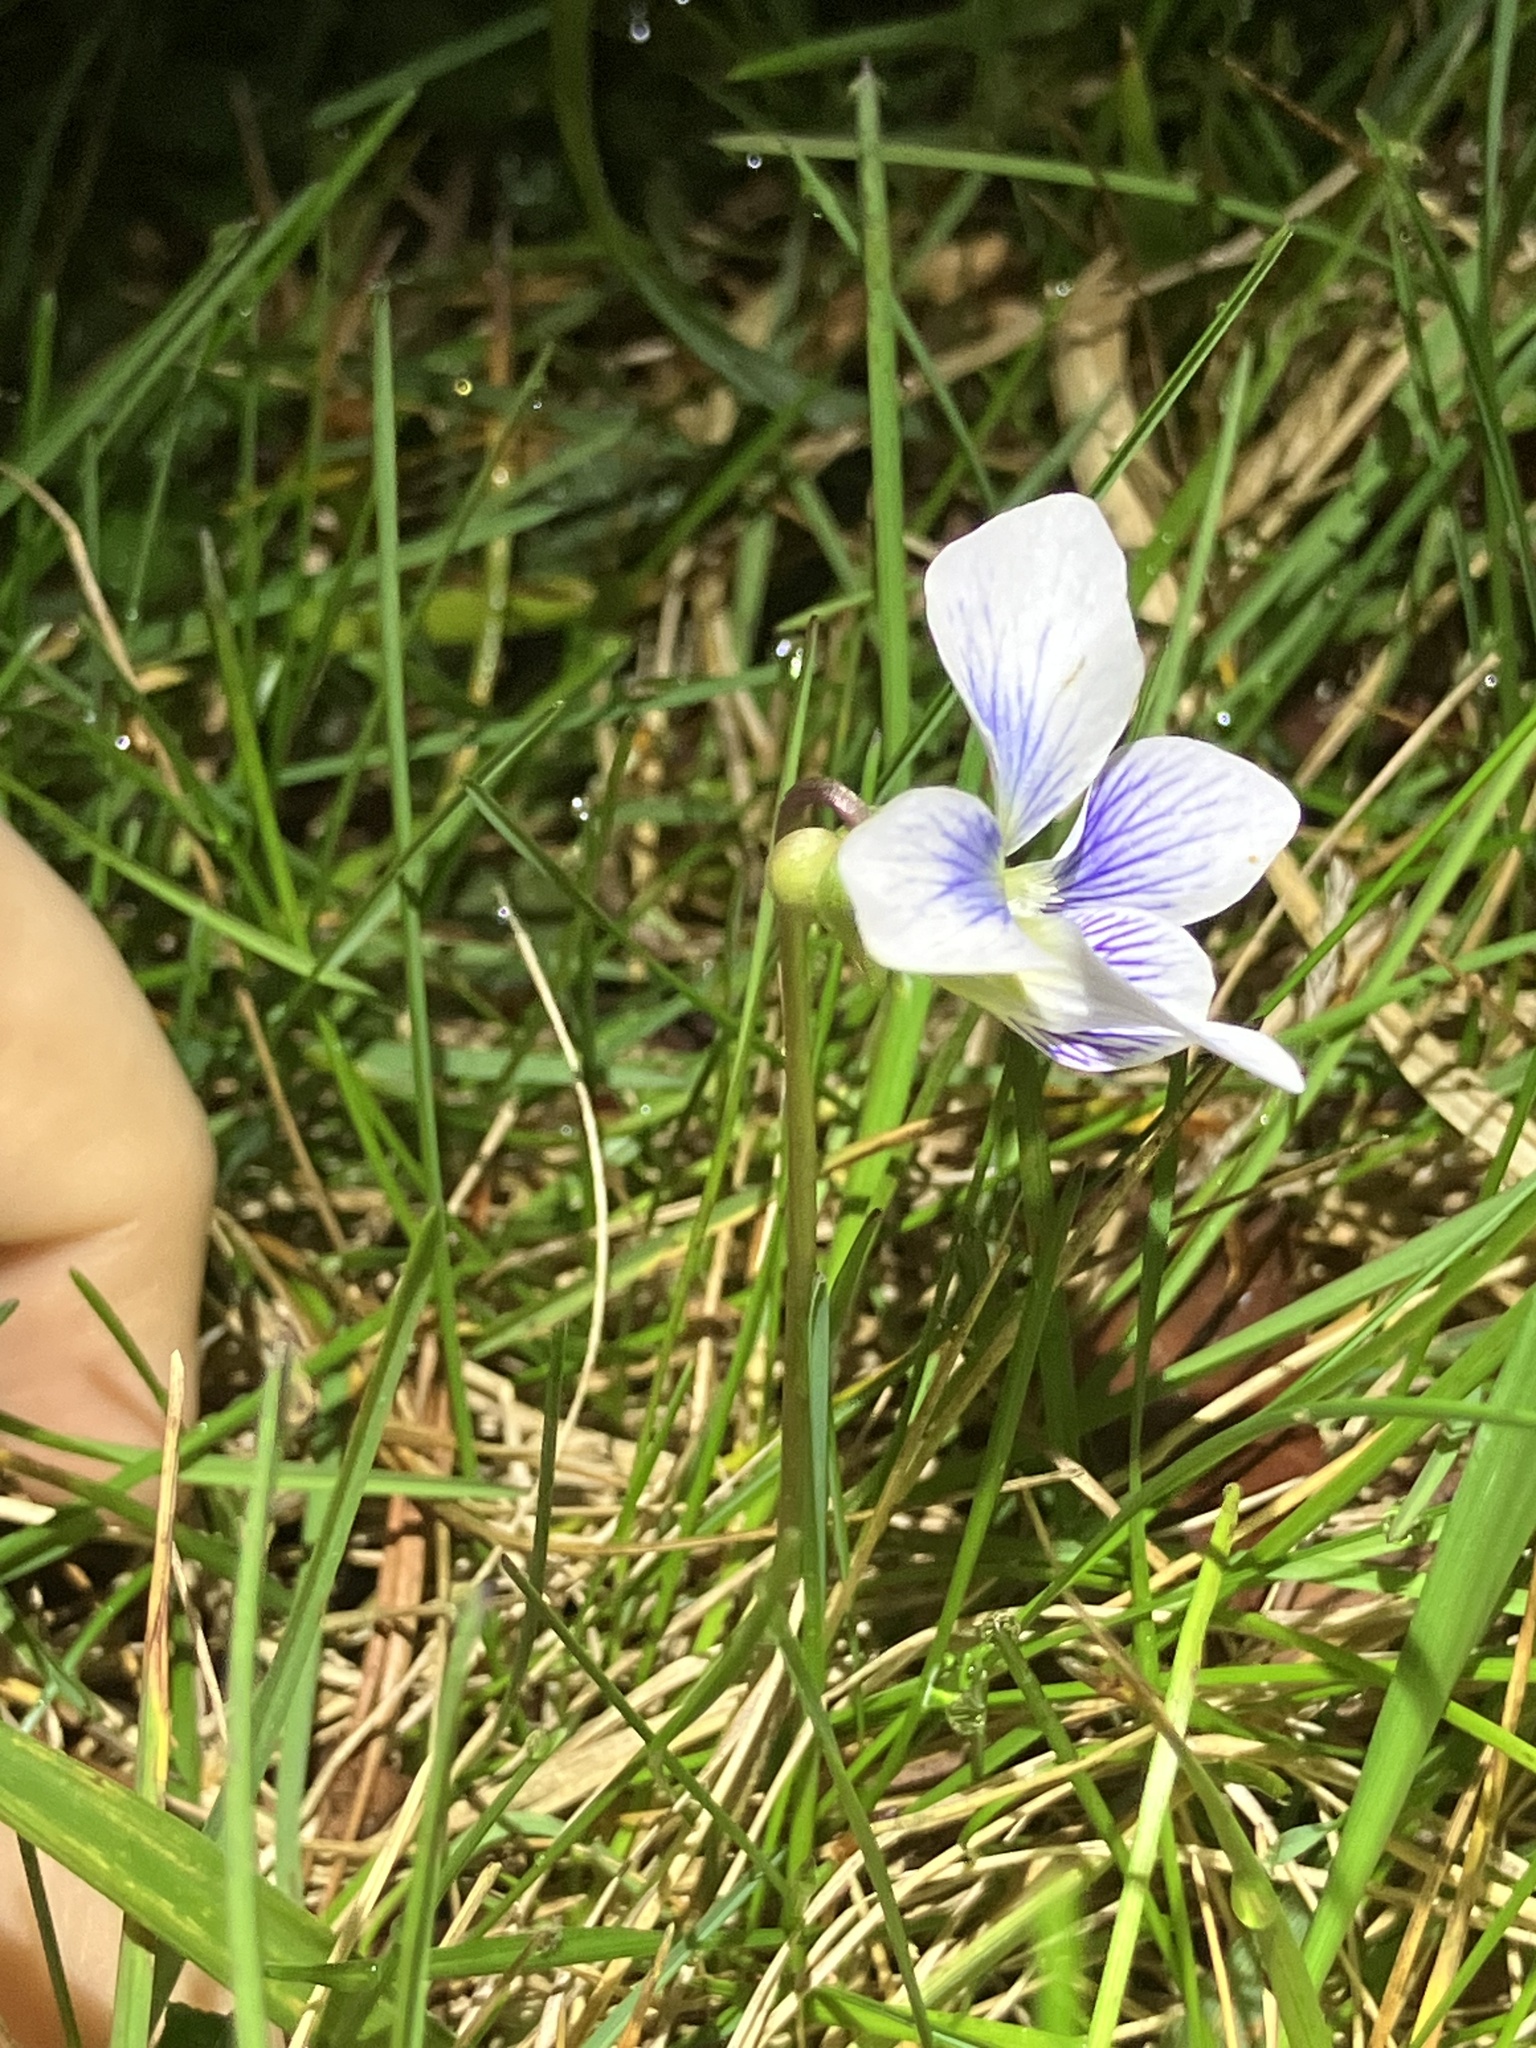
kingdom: Plantae
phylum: Tracheophyta
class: Magnoliopsida
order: Malpighiales
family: Violaceae
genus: Viola
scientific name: Viola communis
